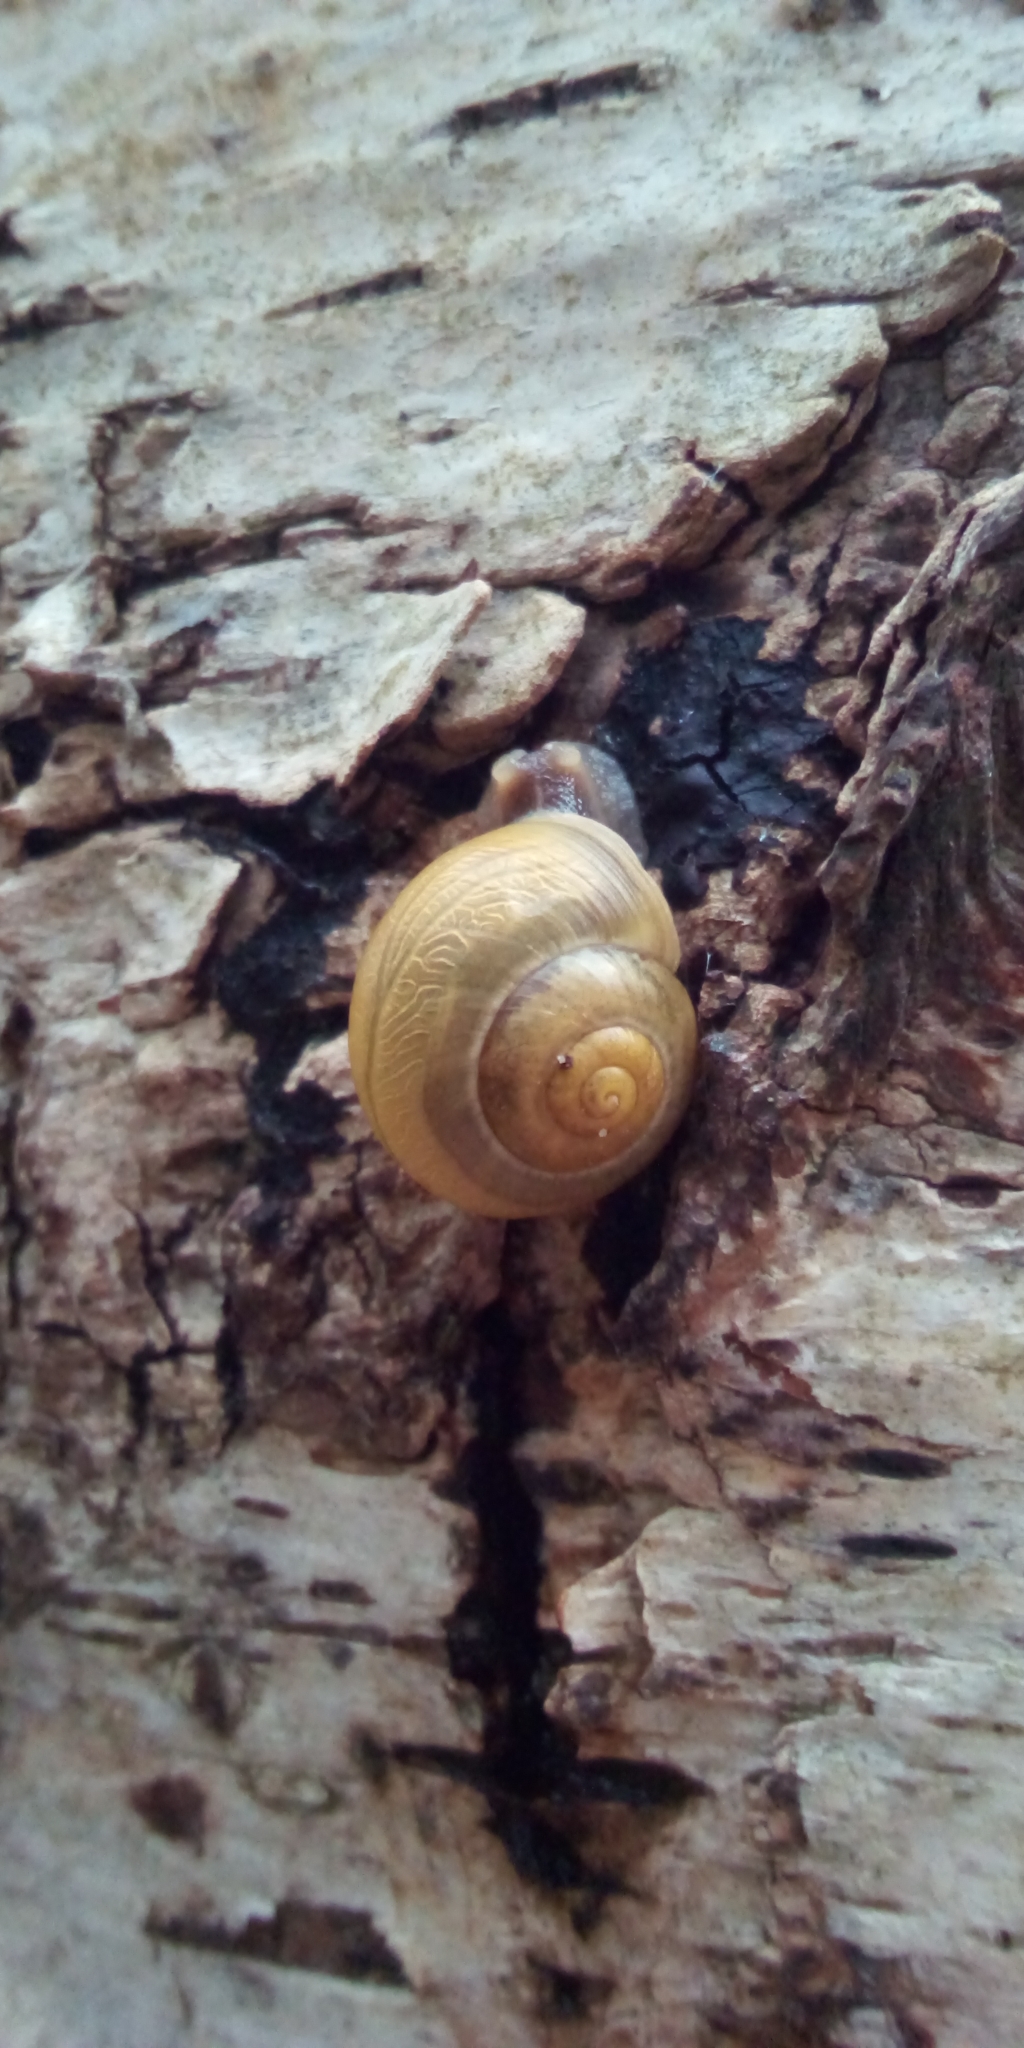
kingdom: Animalia
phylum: Mollusca
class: Gastropoda
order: Stylommatophora
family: Helicidae
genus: Cepaea
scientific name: Cepaea
